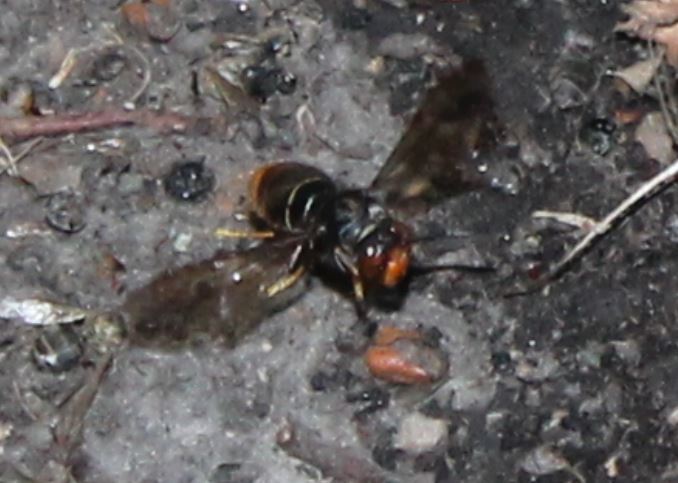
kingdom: Animalia
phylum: Arthropoda
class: Insecta
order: Hymenoptera
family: Vespidae
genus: Vespa
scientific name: Vespa velutina
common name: Asian hornet
